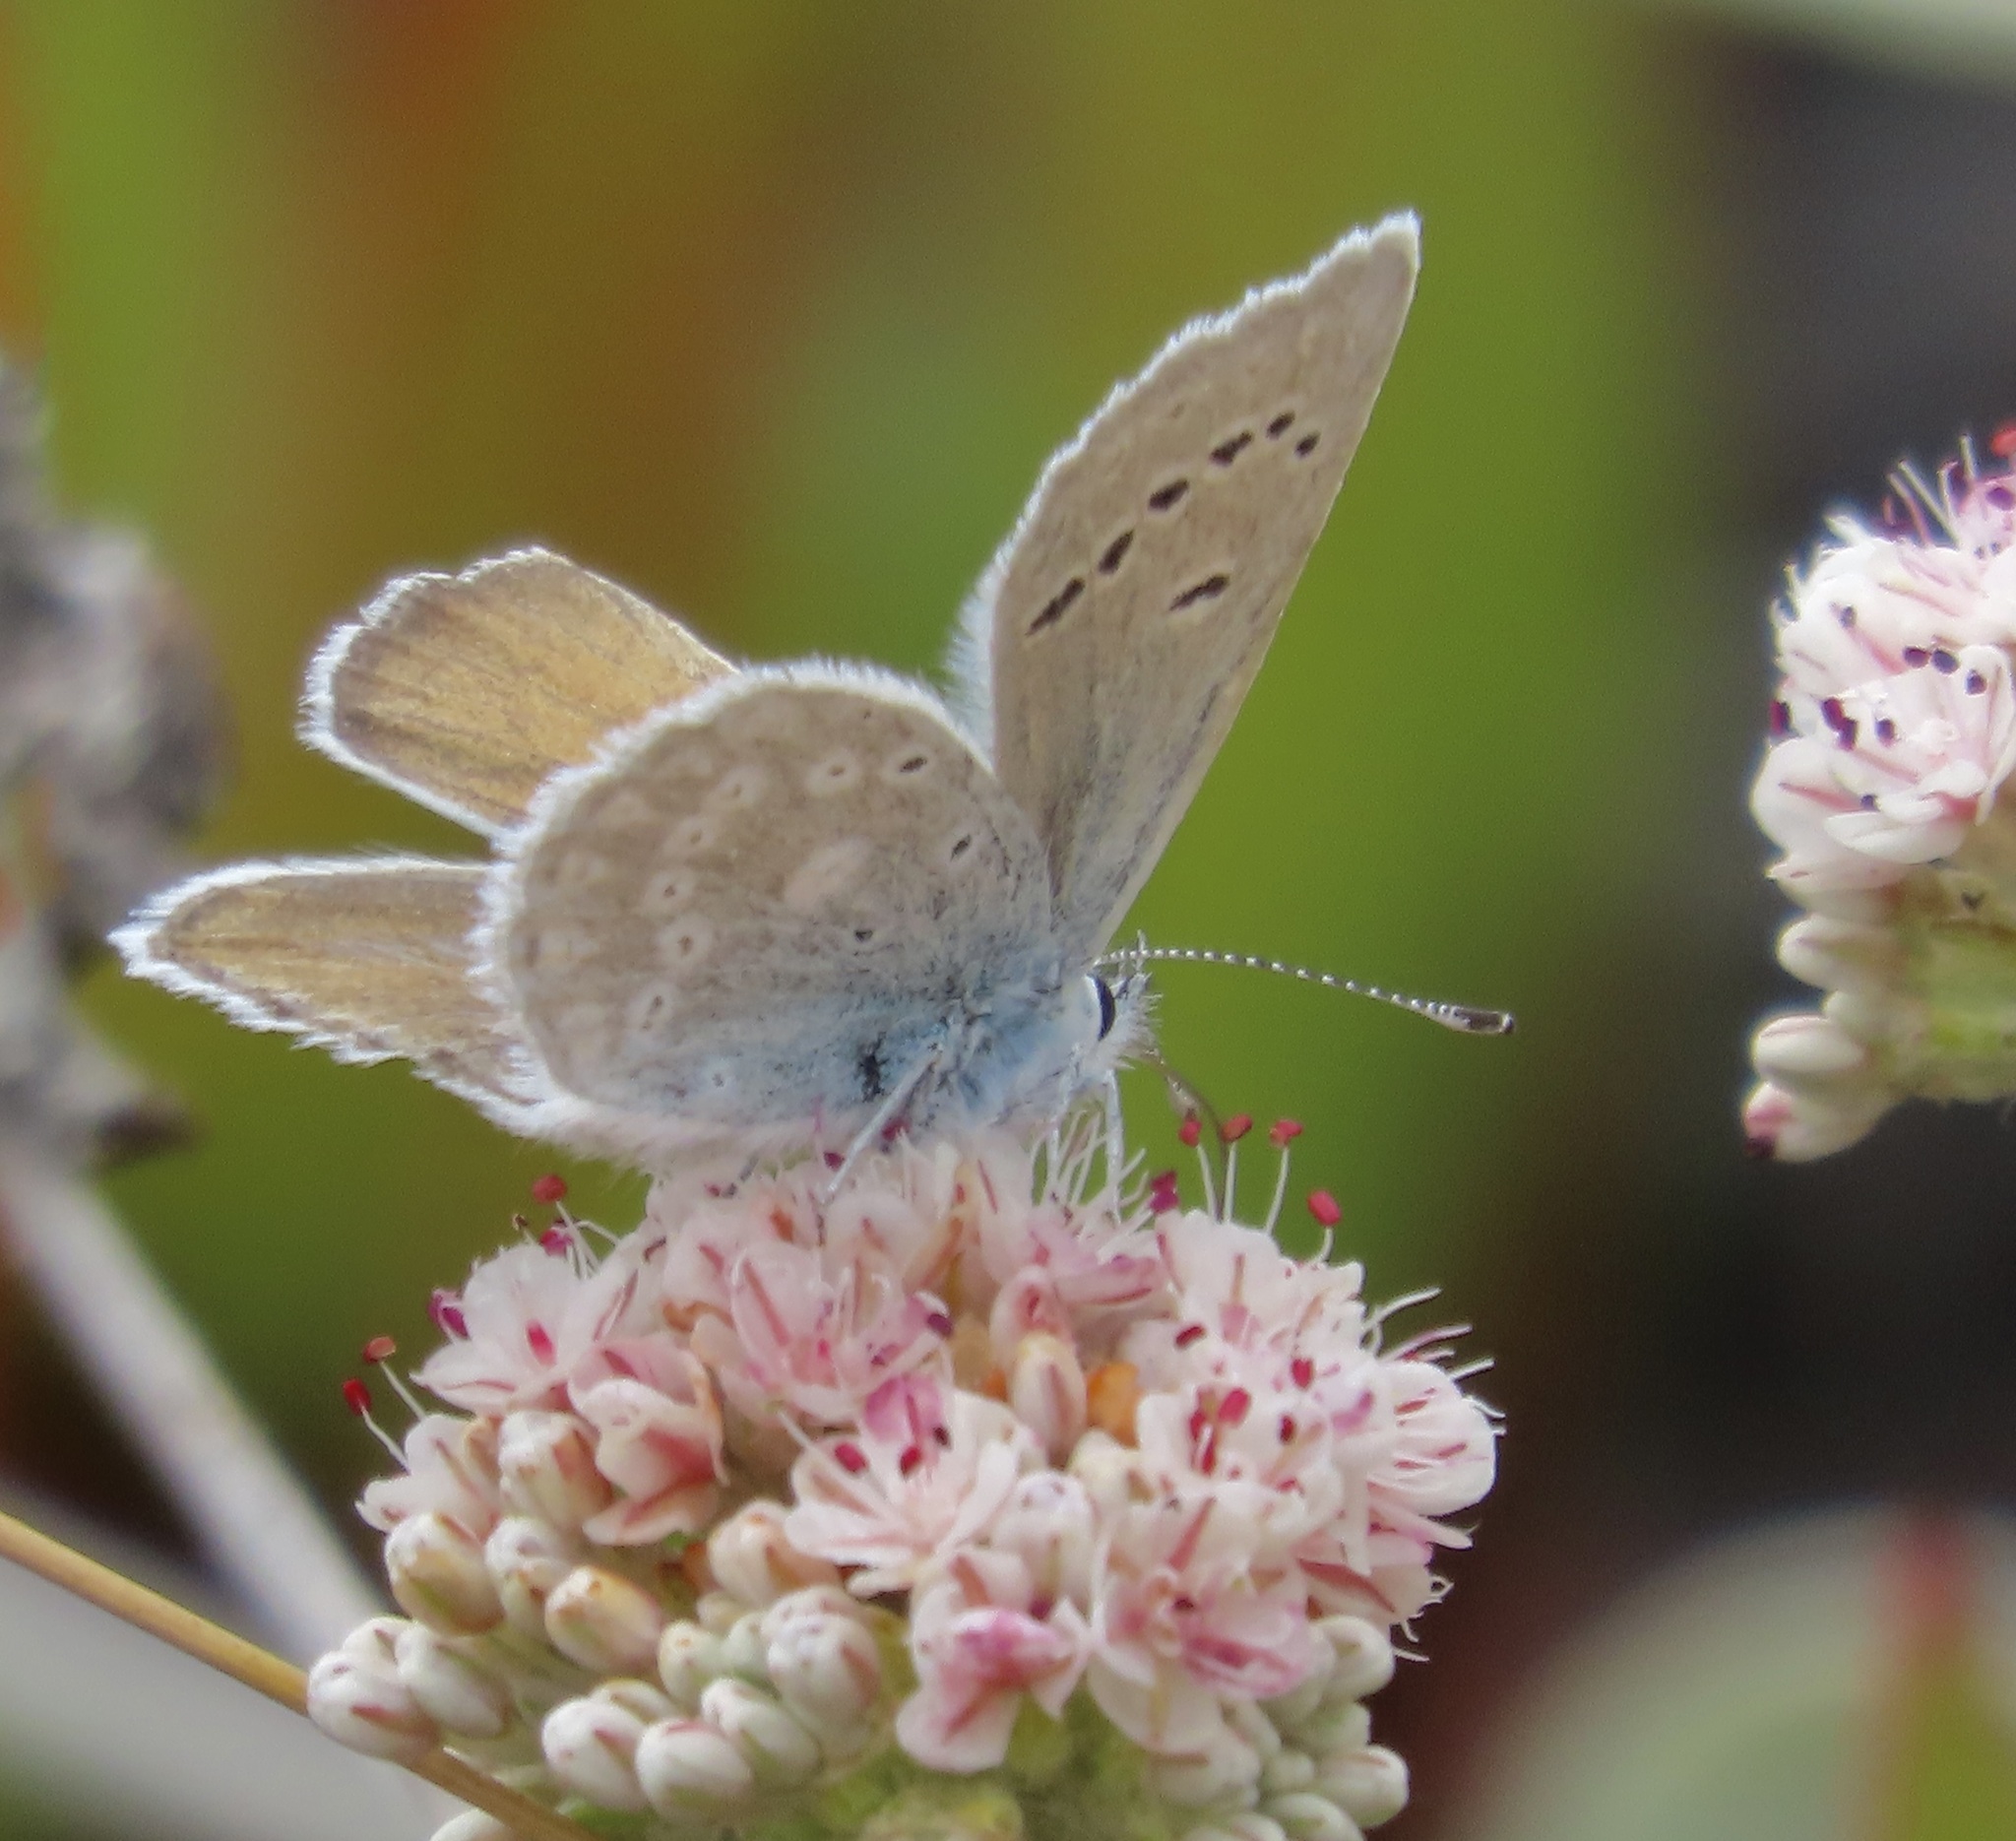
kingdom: Animalia
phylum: Arthropoda
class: Insecta
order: Lepidoptera
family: Lycaenidae
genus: Icaricia
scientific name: Icaricia icarioides
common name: Boisduval's blue
